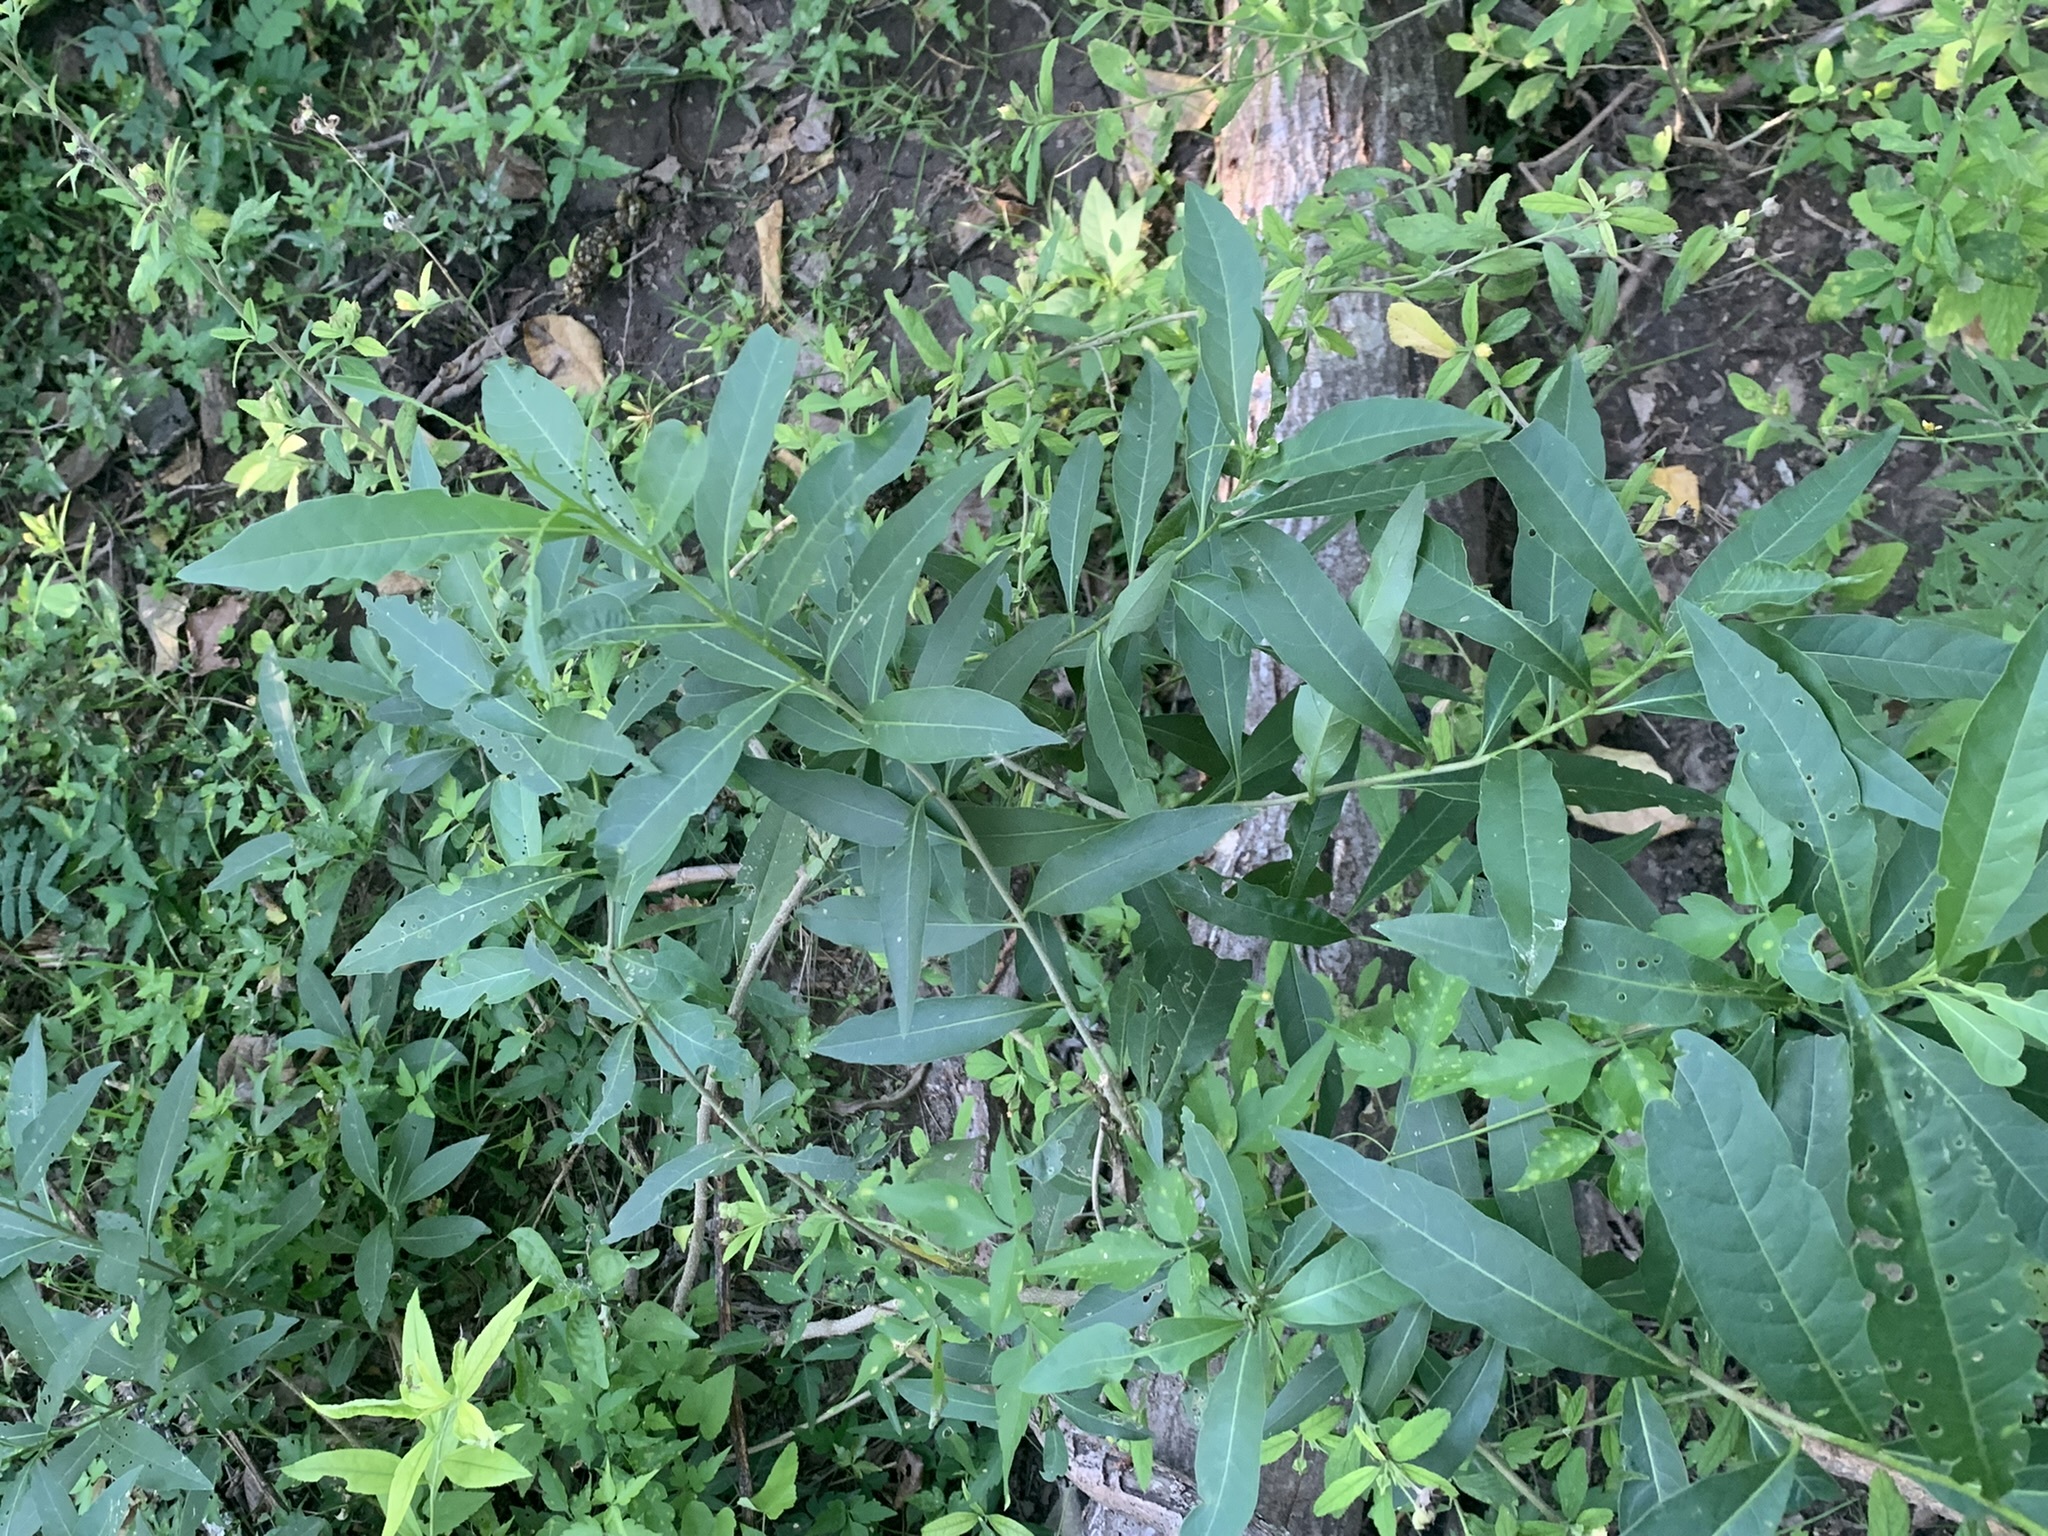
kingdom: Plantae
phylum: Tracheophyta
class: Magnoliopsida
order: Solanales
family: Solanaceae
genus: Cestrum
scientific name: Cestrum parqui
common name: Chilean cestrum
